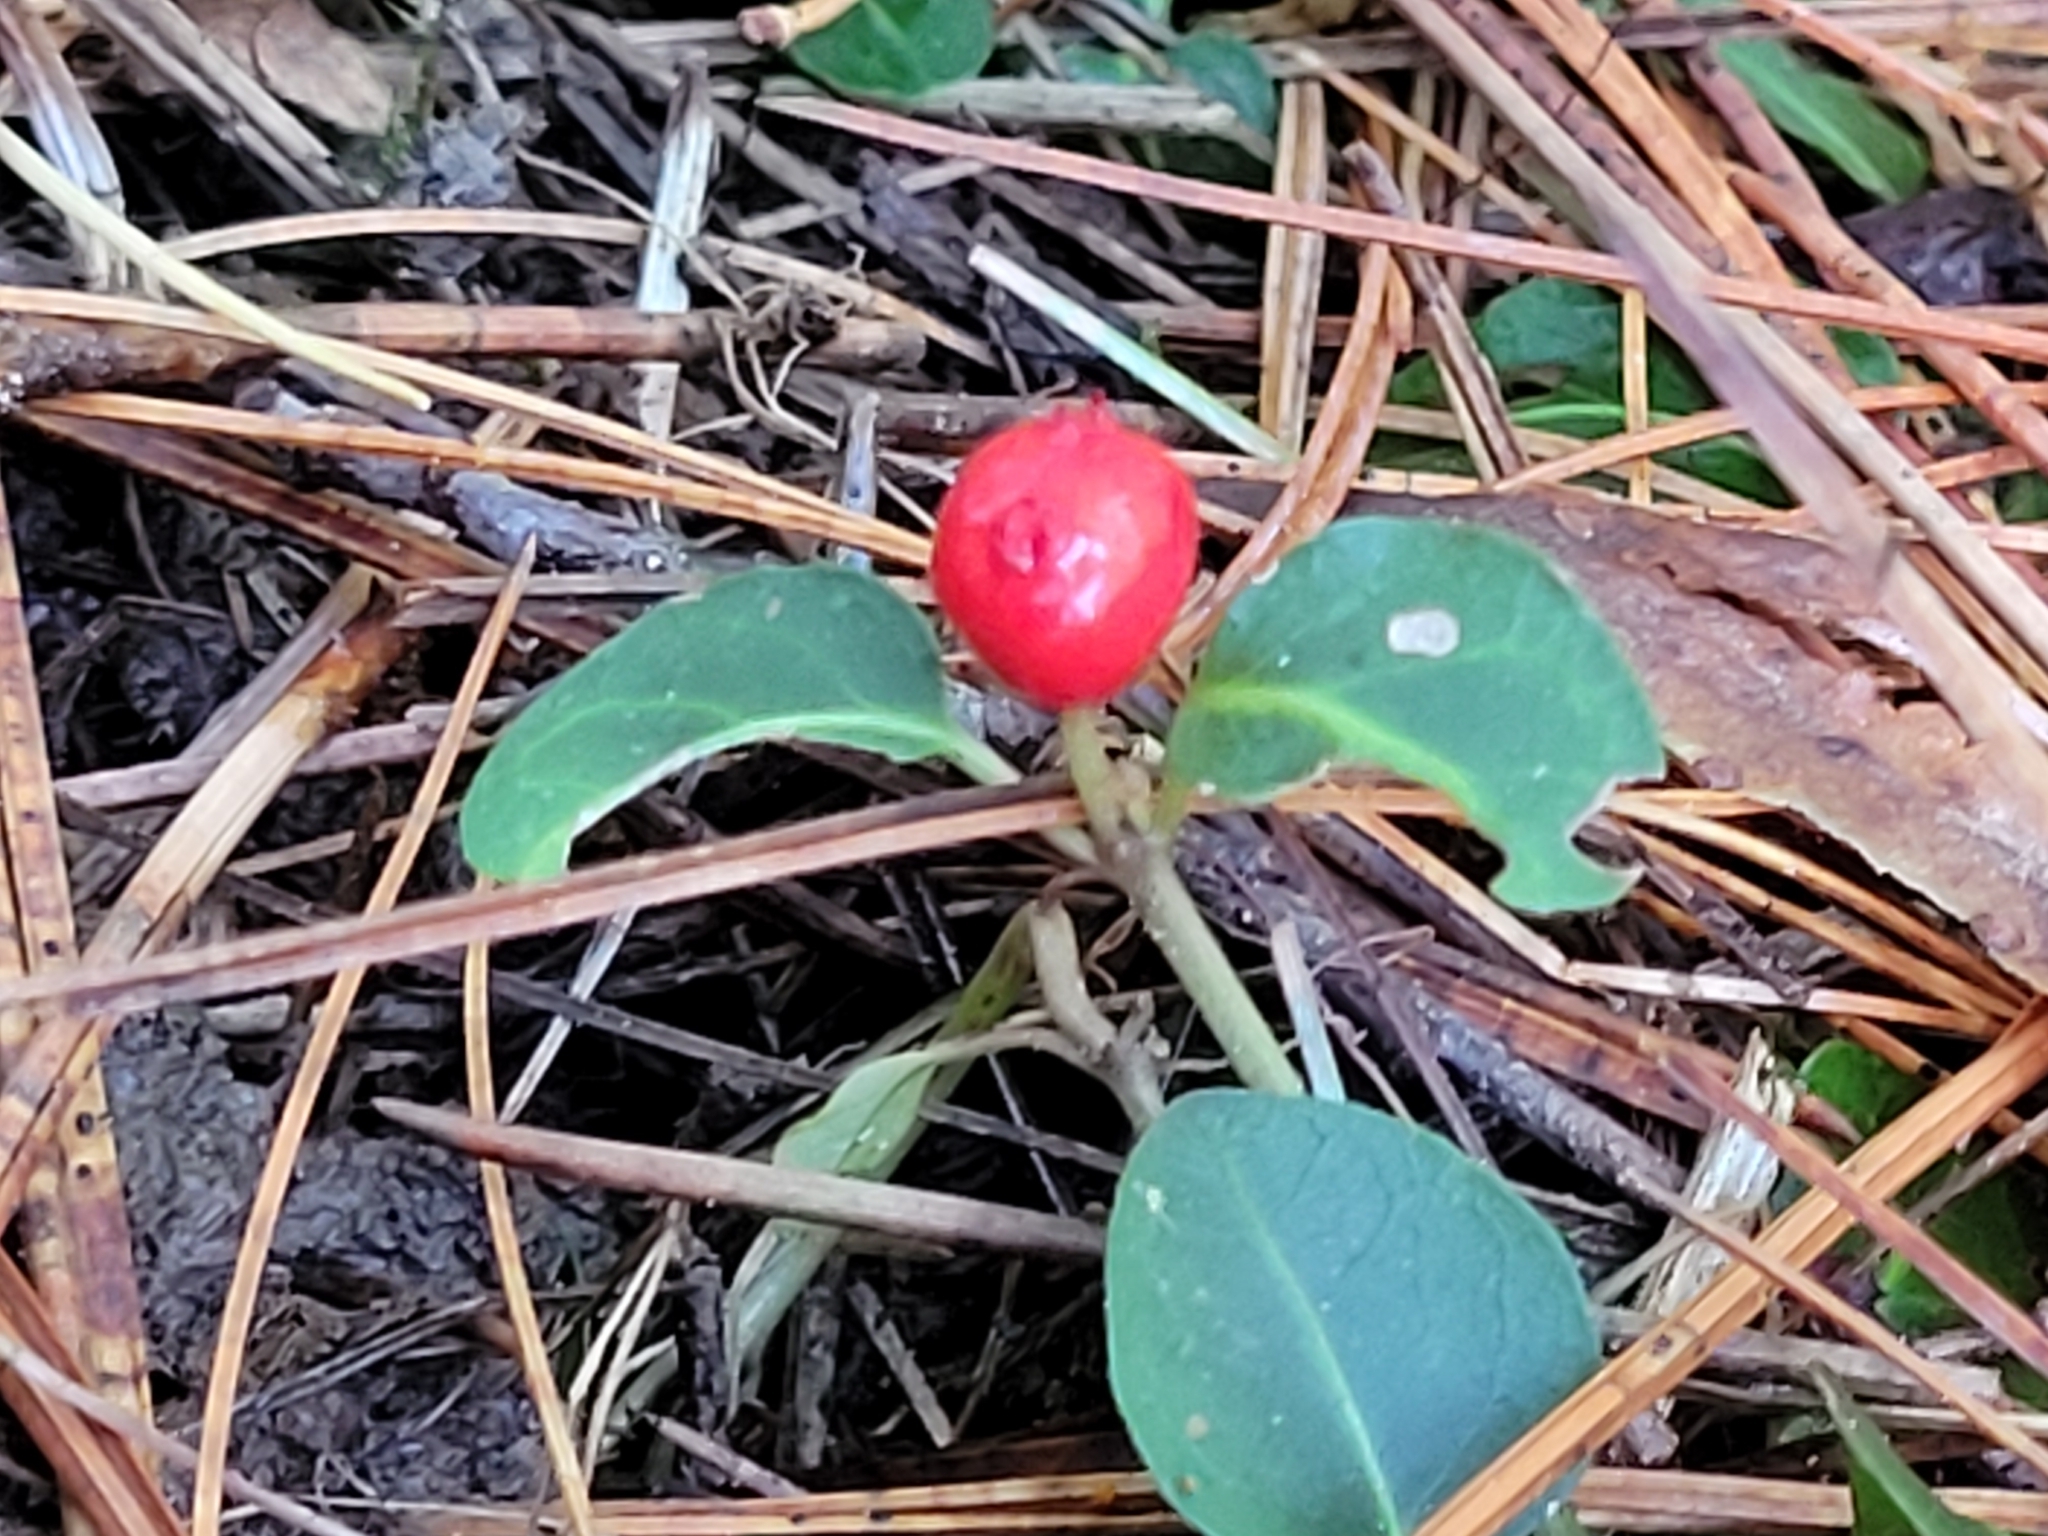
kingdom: Plantae
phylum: Tracheophyta
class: Magnoliopsida
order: Gentianales
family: Rubiaceae
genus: Mitchella
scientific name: Mitchella repens
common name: Partridge-berry
